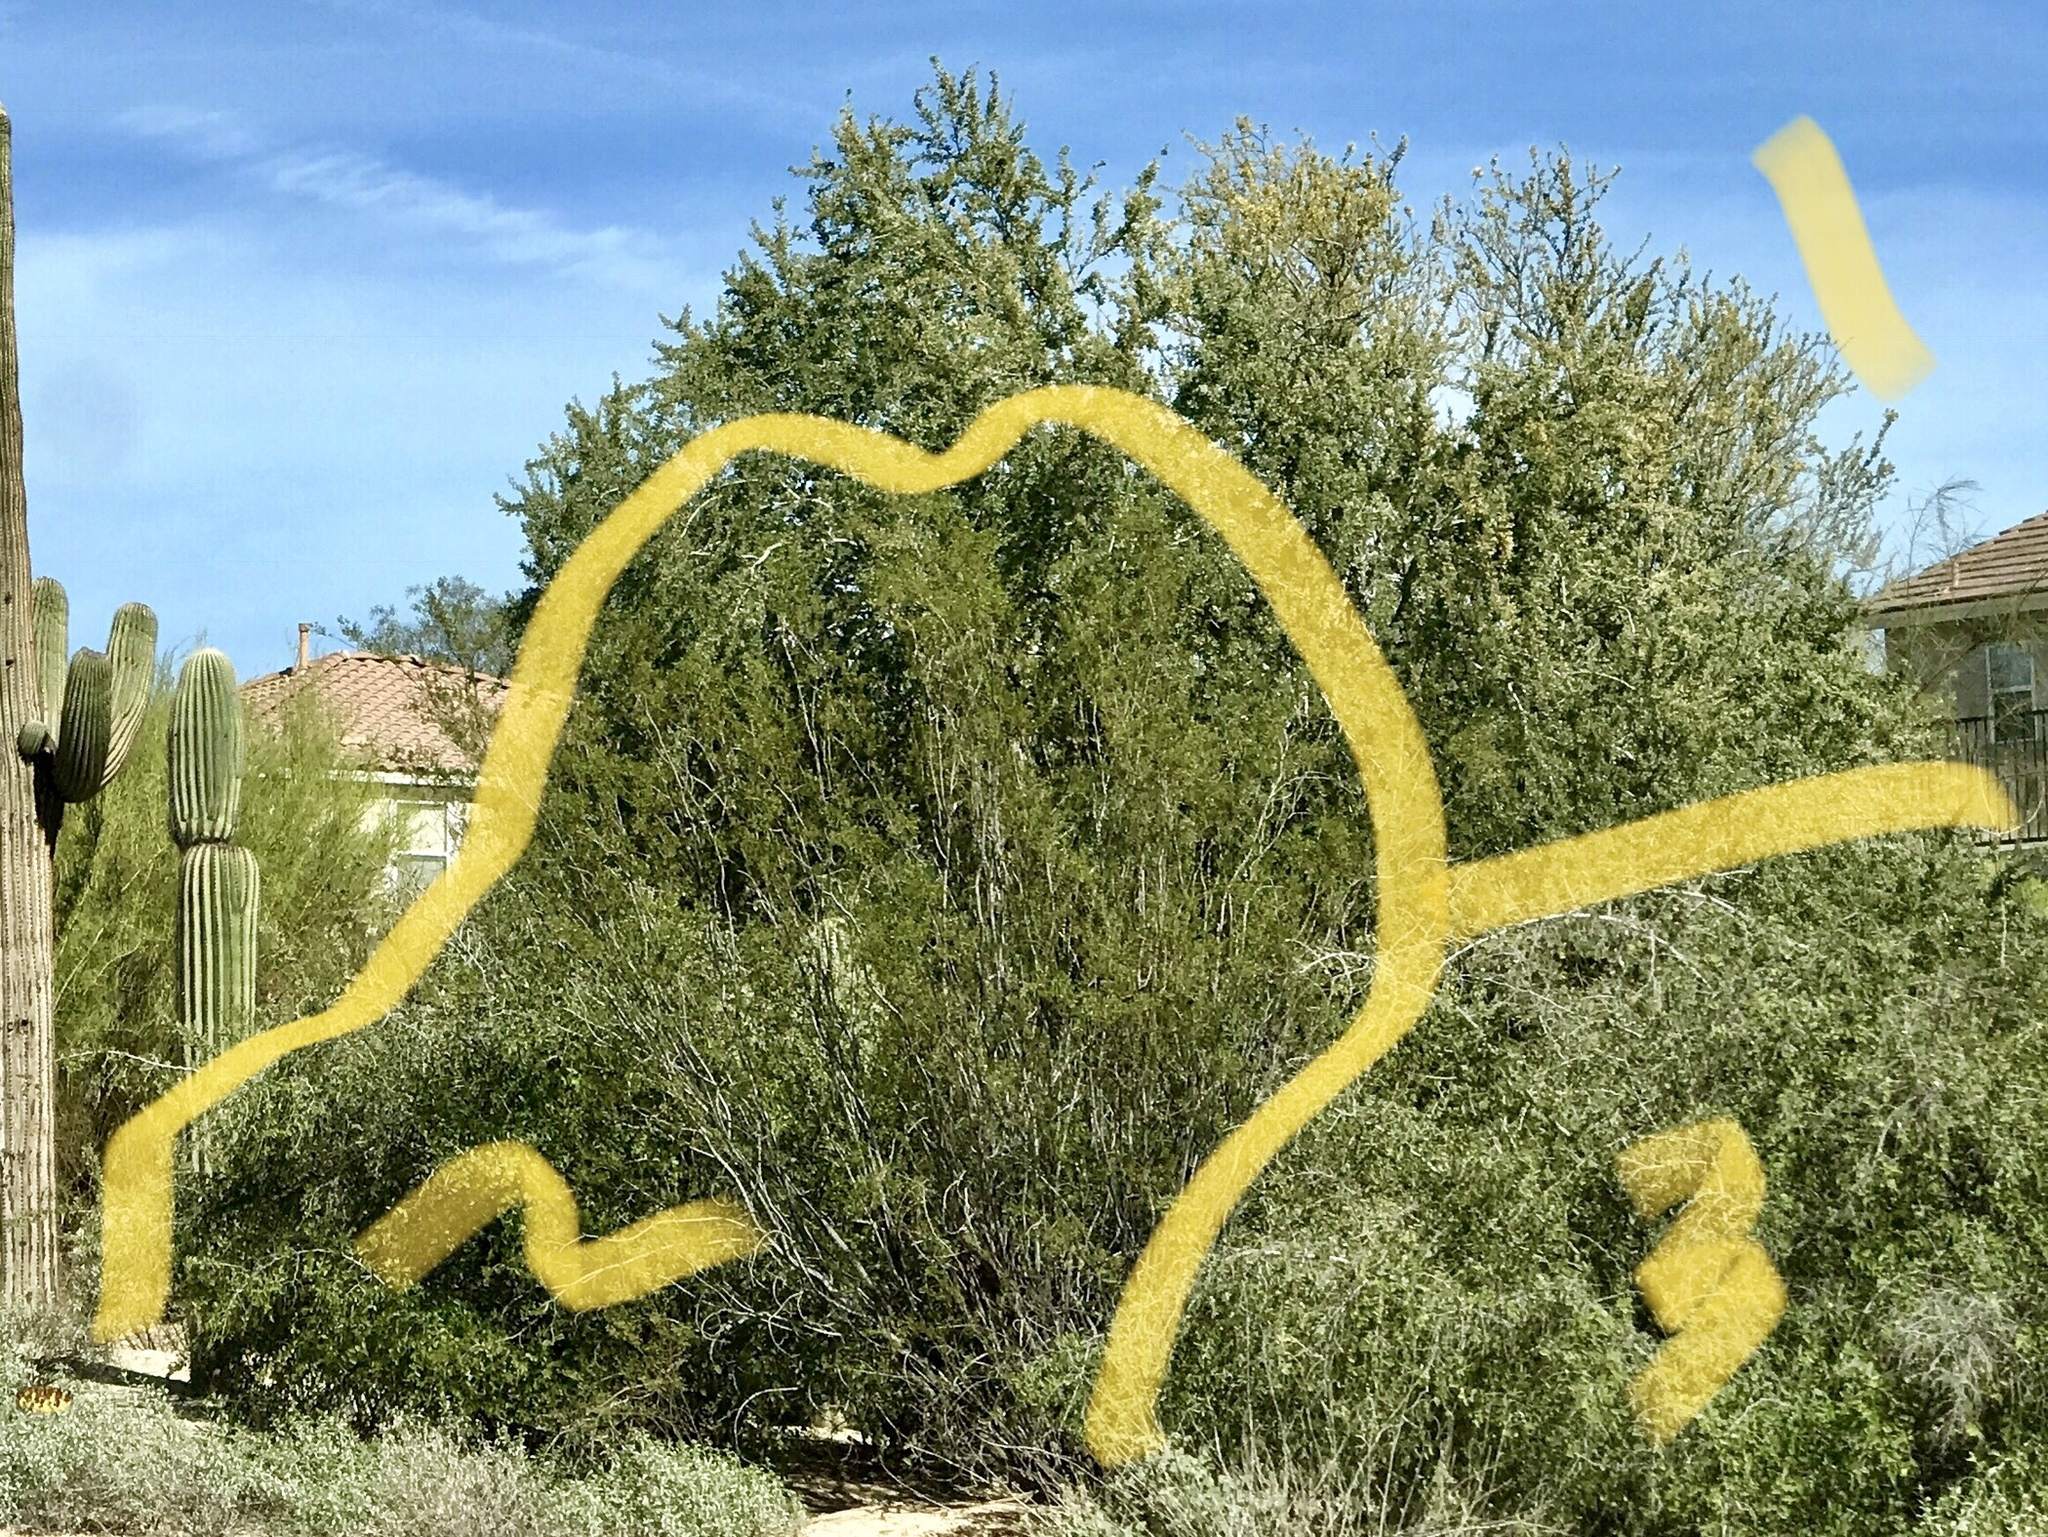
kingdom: Plantae
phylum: Tracheophyta
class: Magnoliopsida
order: Fabales
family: Fabaceae
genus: Olneya
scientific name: Olneya tesota
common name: Desert ironwood
